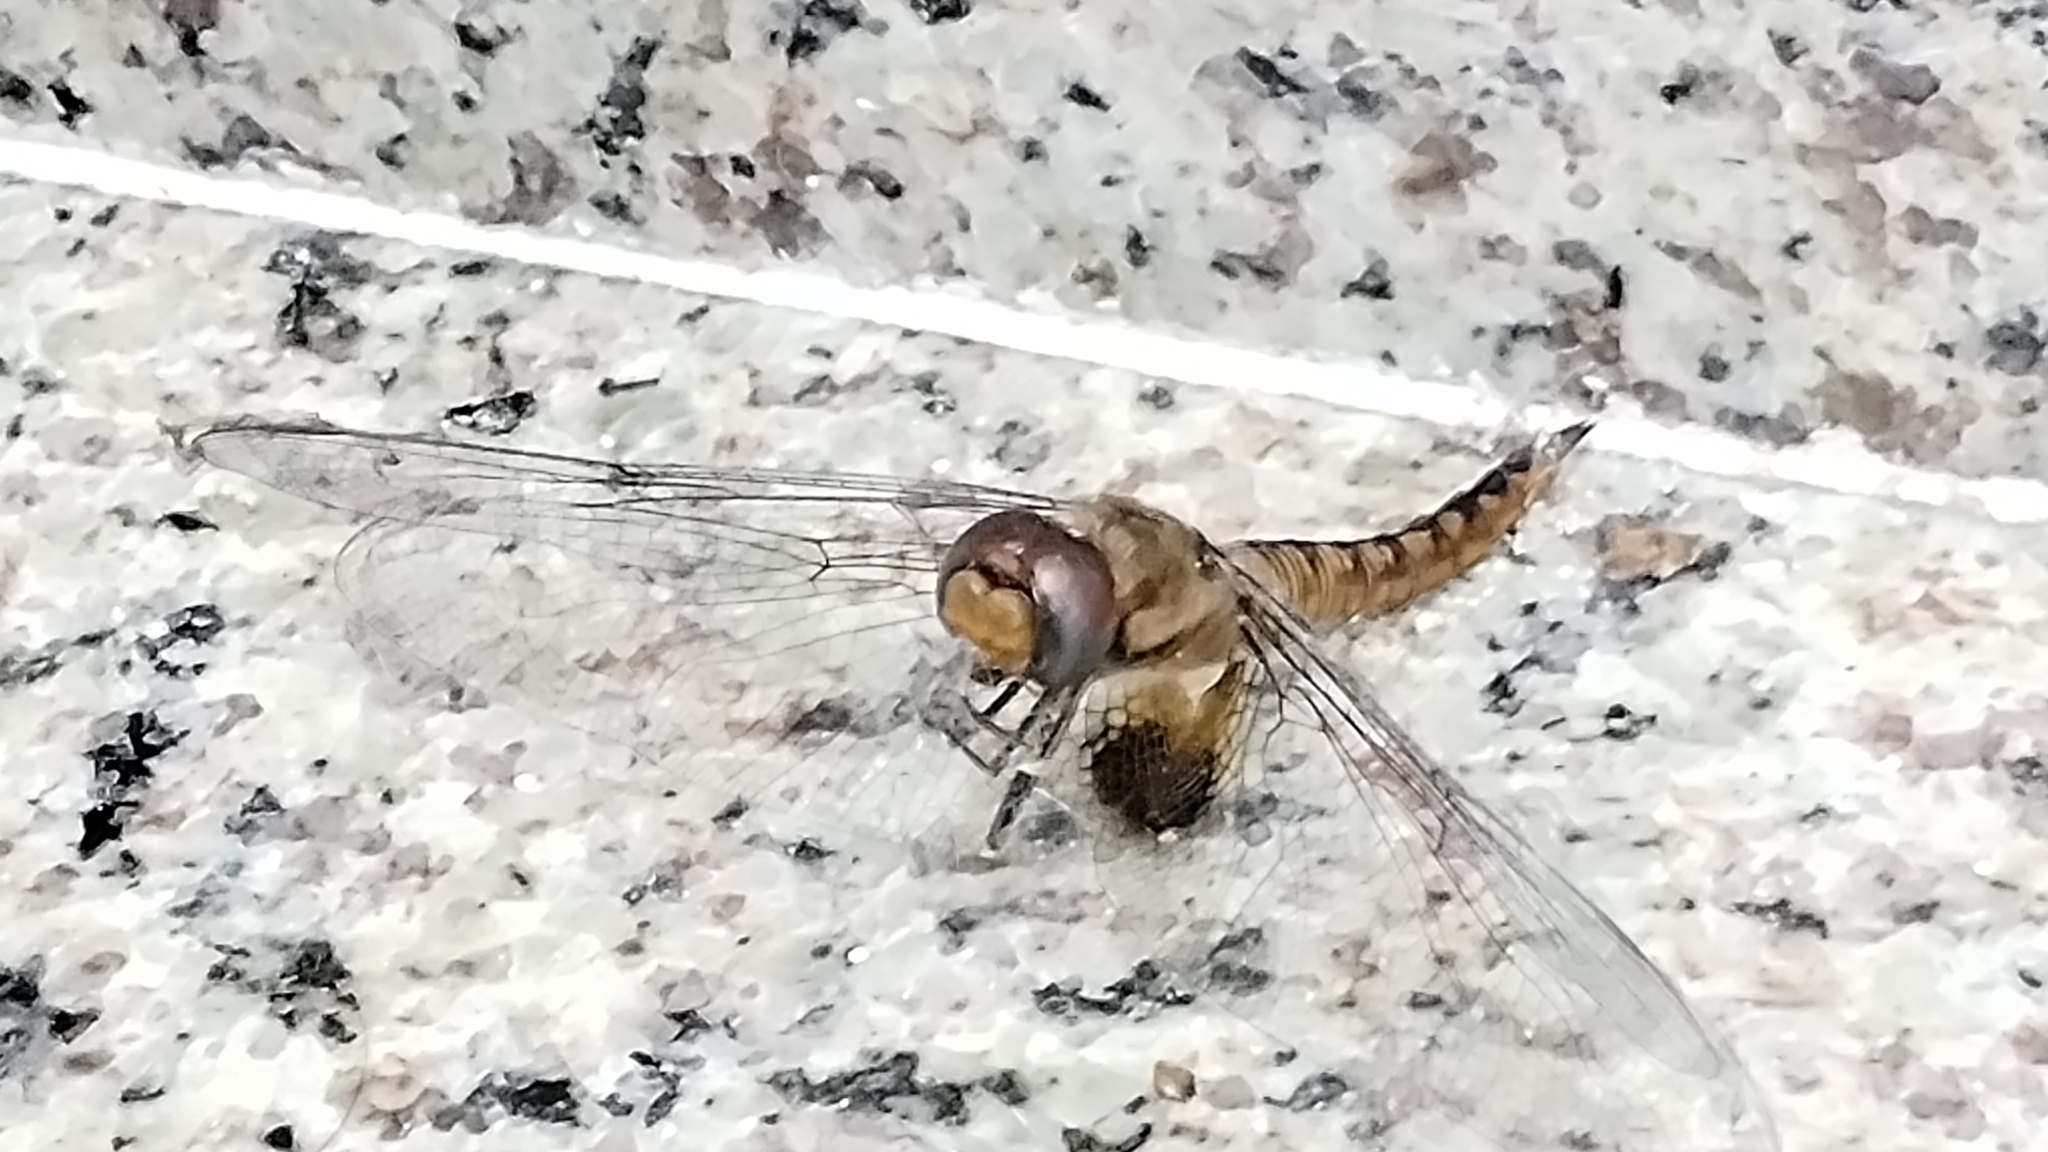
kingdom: Animalia
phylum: Arthropoda
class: Insecta
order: Odonata
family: Libellulidae
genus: Pantala
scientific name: Pantala hymenaea
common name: Spot-winged glider
